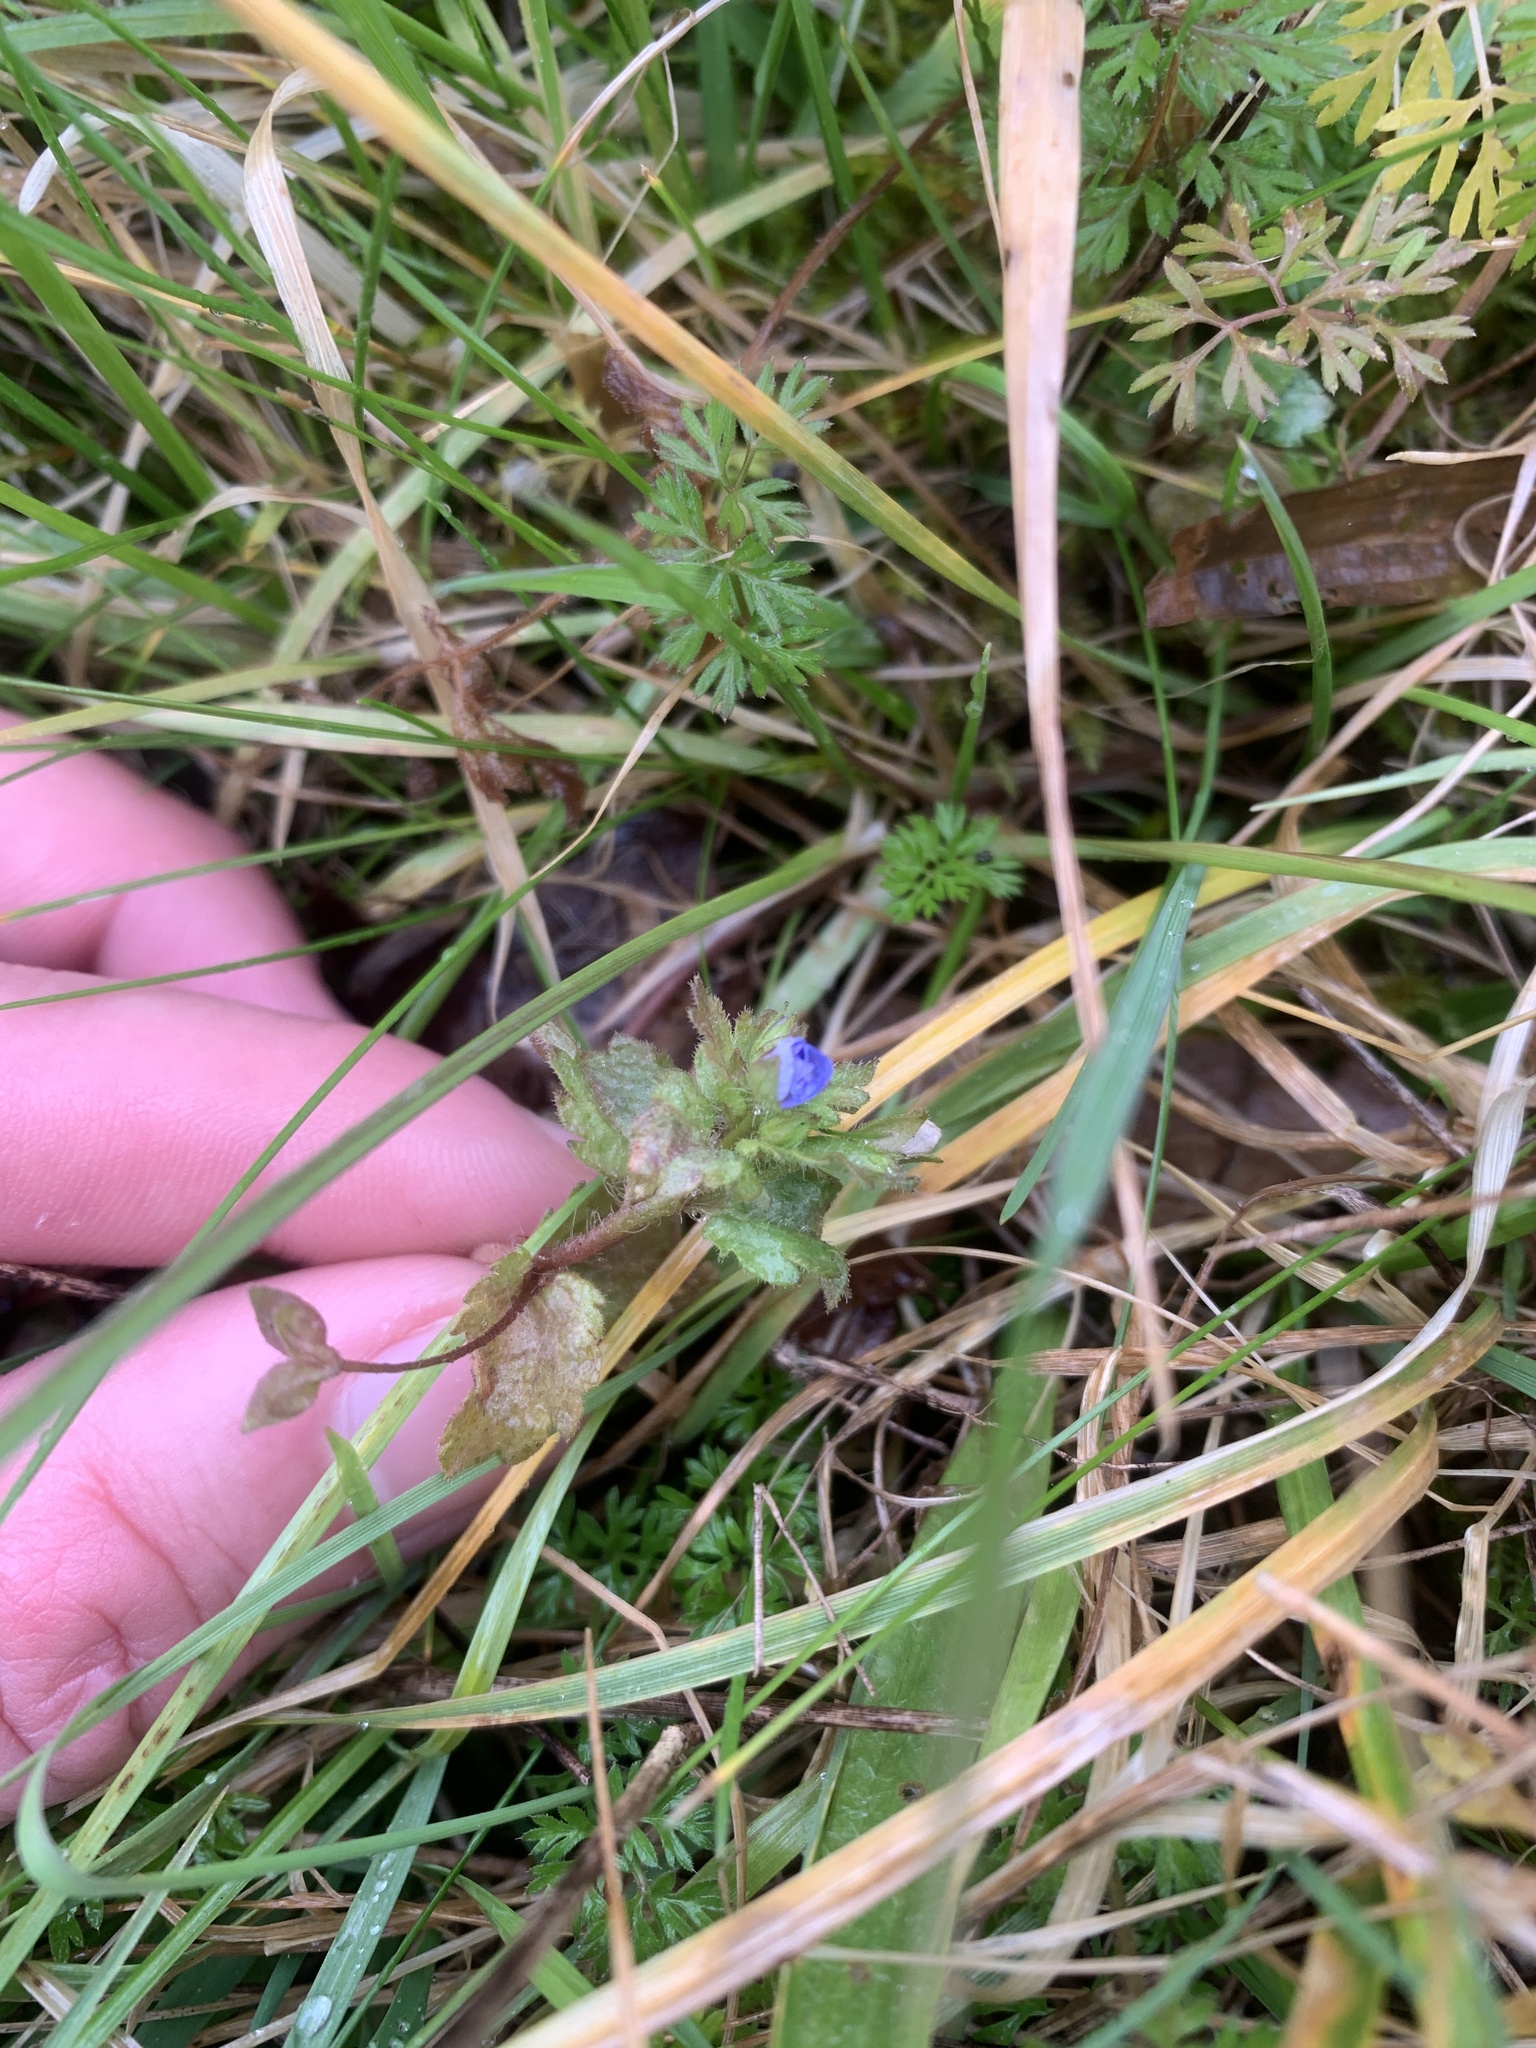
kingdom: Plantae
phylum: Tracheophyta
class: Magnoliopsida
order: Lamiales
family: Plantaginaceae
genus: Veronica
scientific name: Veronica persica
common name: Common field-speedwell
